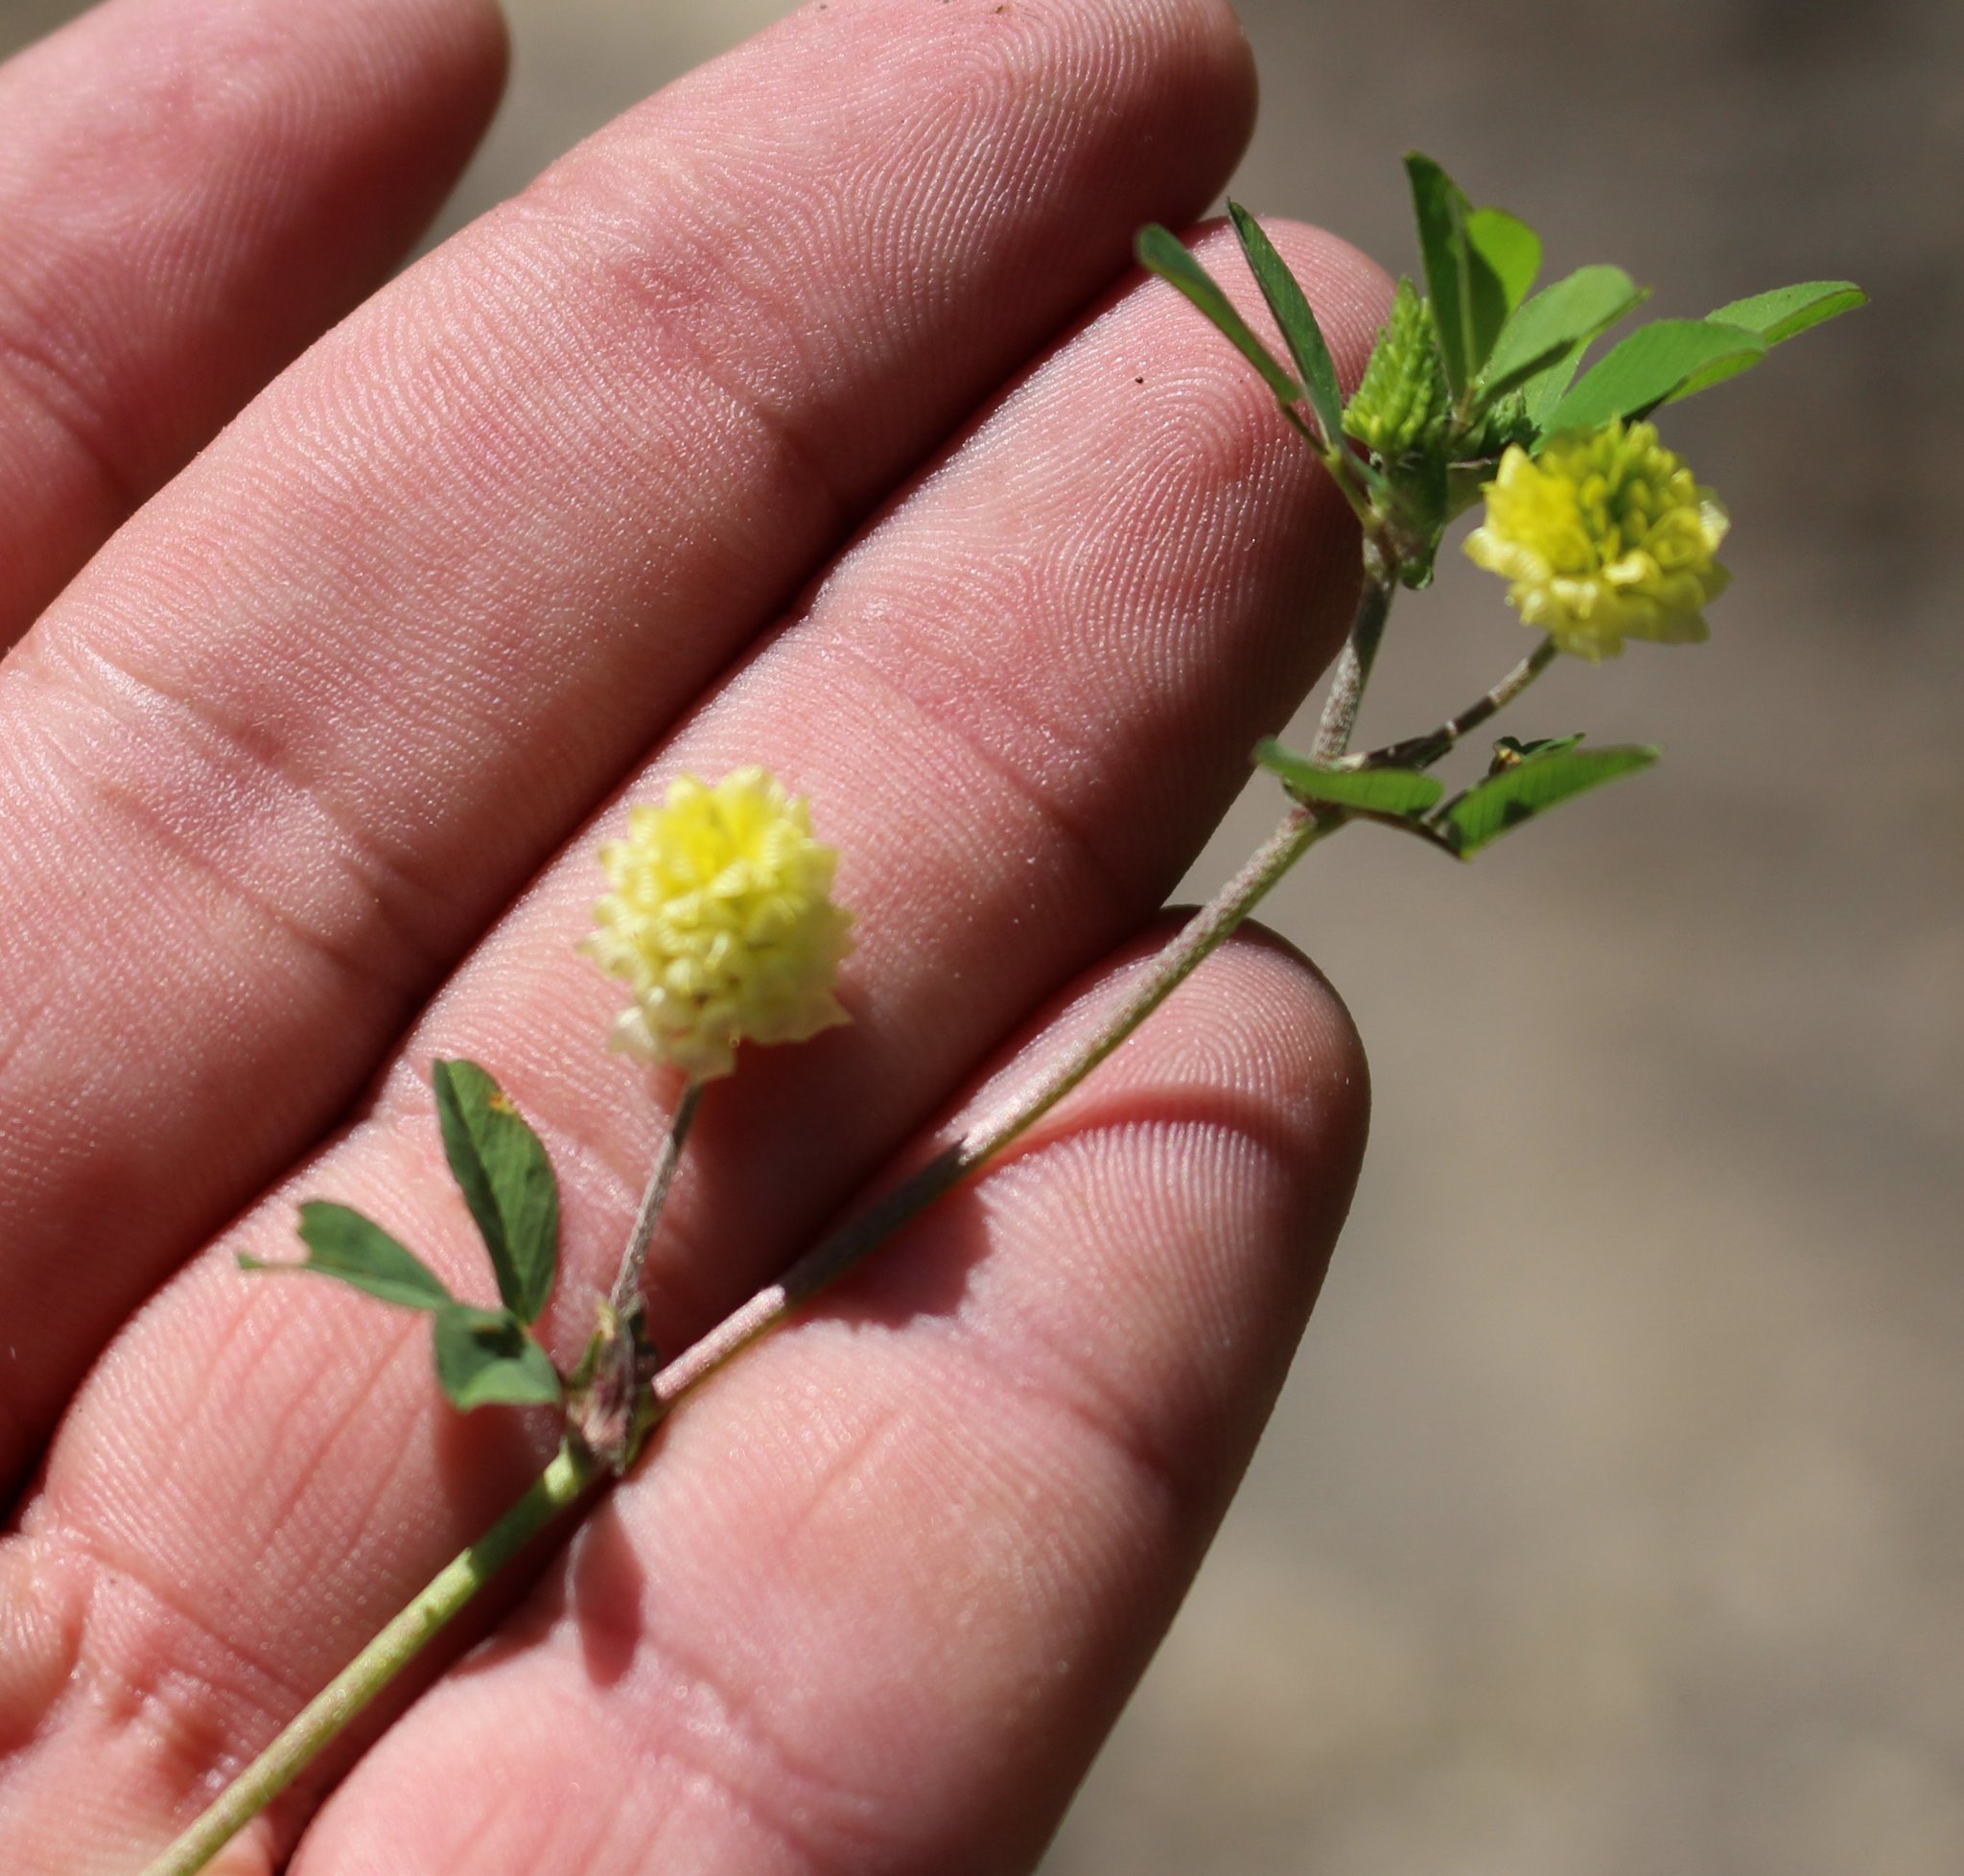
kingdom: Plantae
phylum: Tracheophyta
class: Magnoliopsida
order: Fabales
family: Fabaceae
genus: Trifolium
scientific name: Trifolium campestre
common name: Field clover
